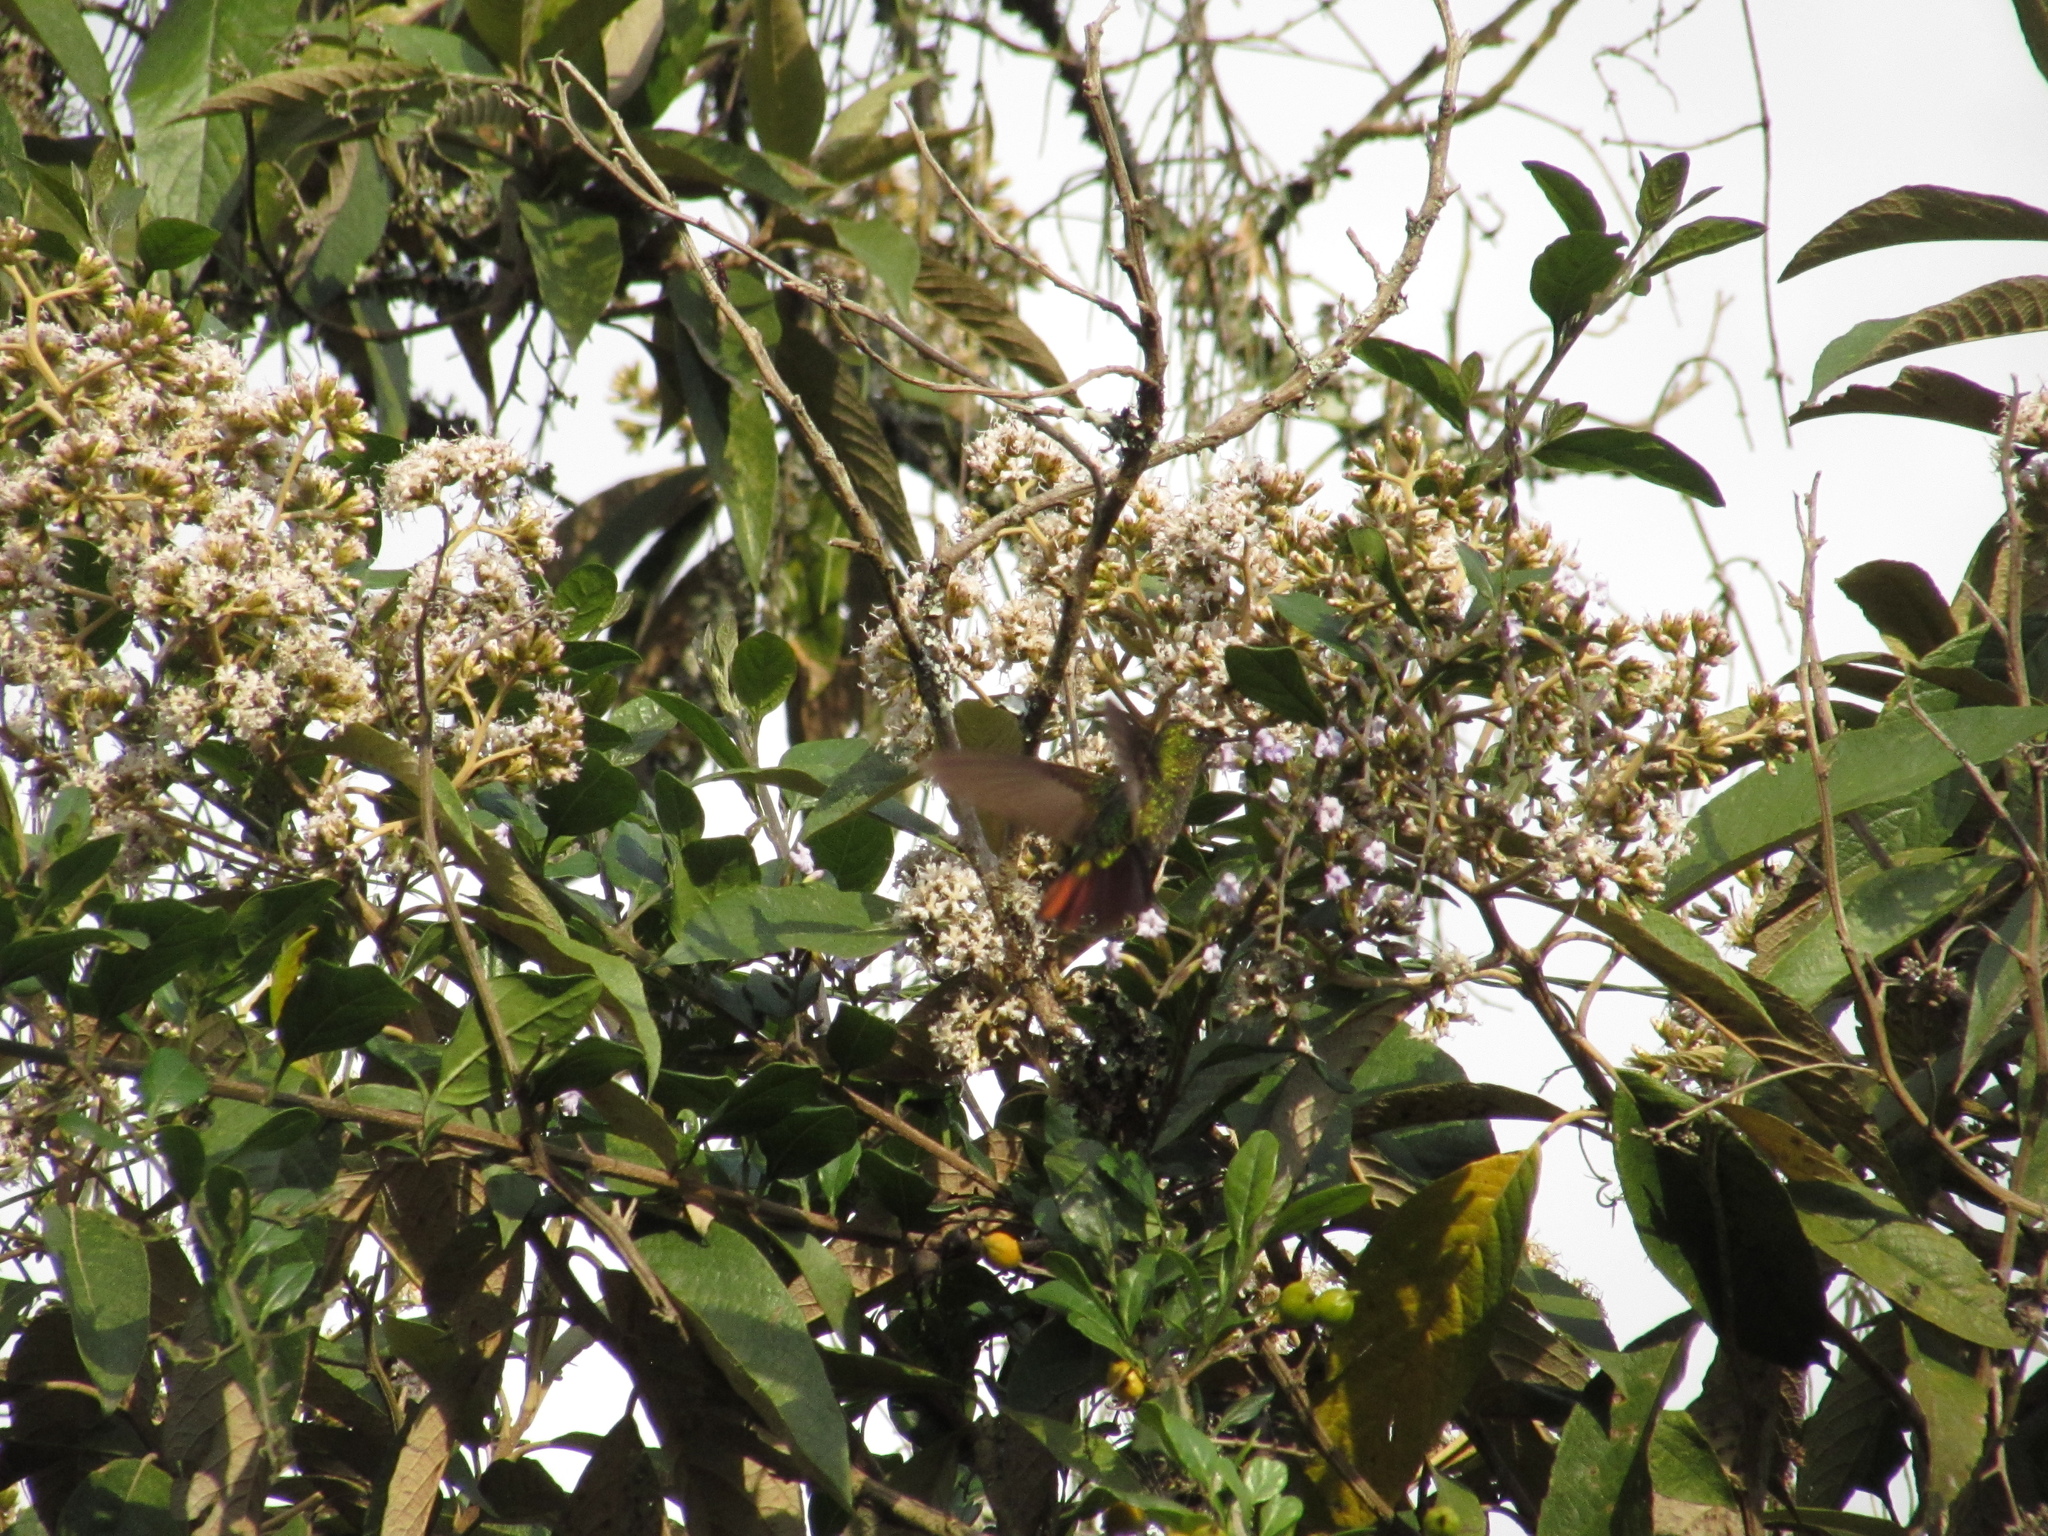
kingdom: Animalia
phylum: Chordata
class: Aves
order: Apodiformes
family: Trochilidae
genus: Metallura
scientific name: Metallura tyrianthina
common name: Tyrian metaltail
